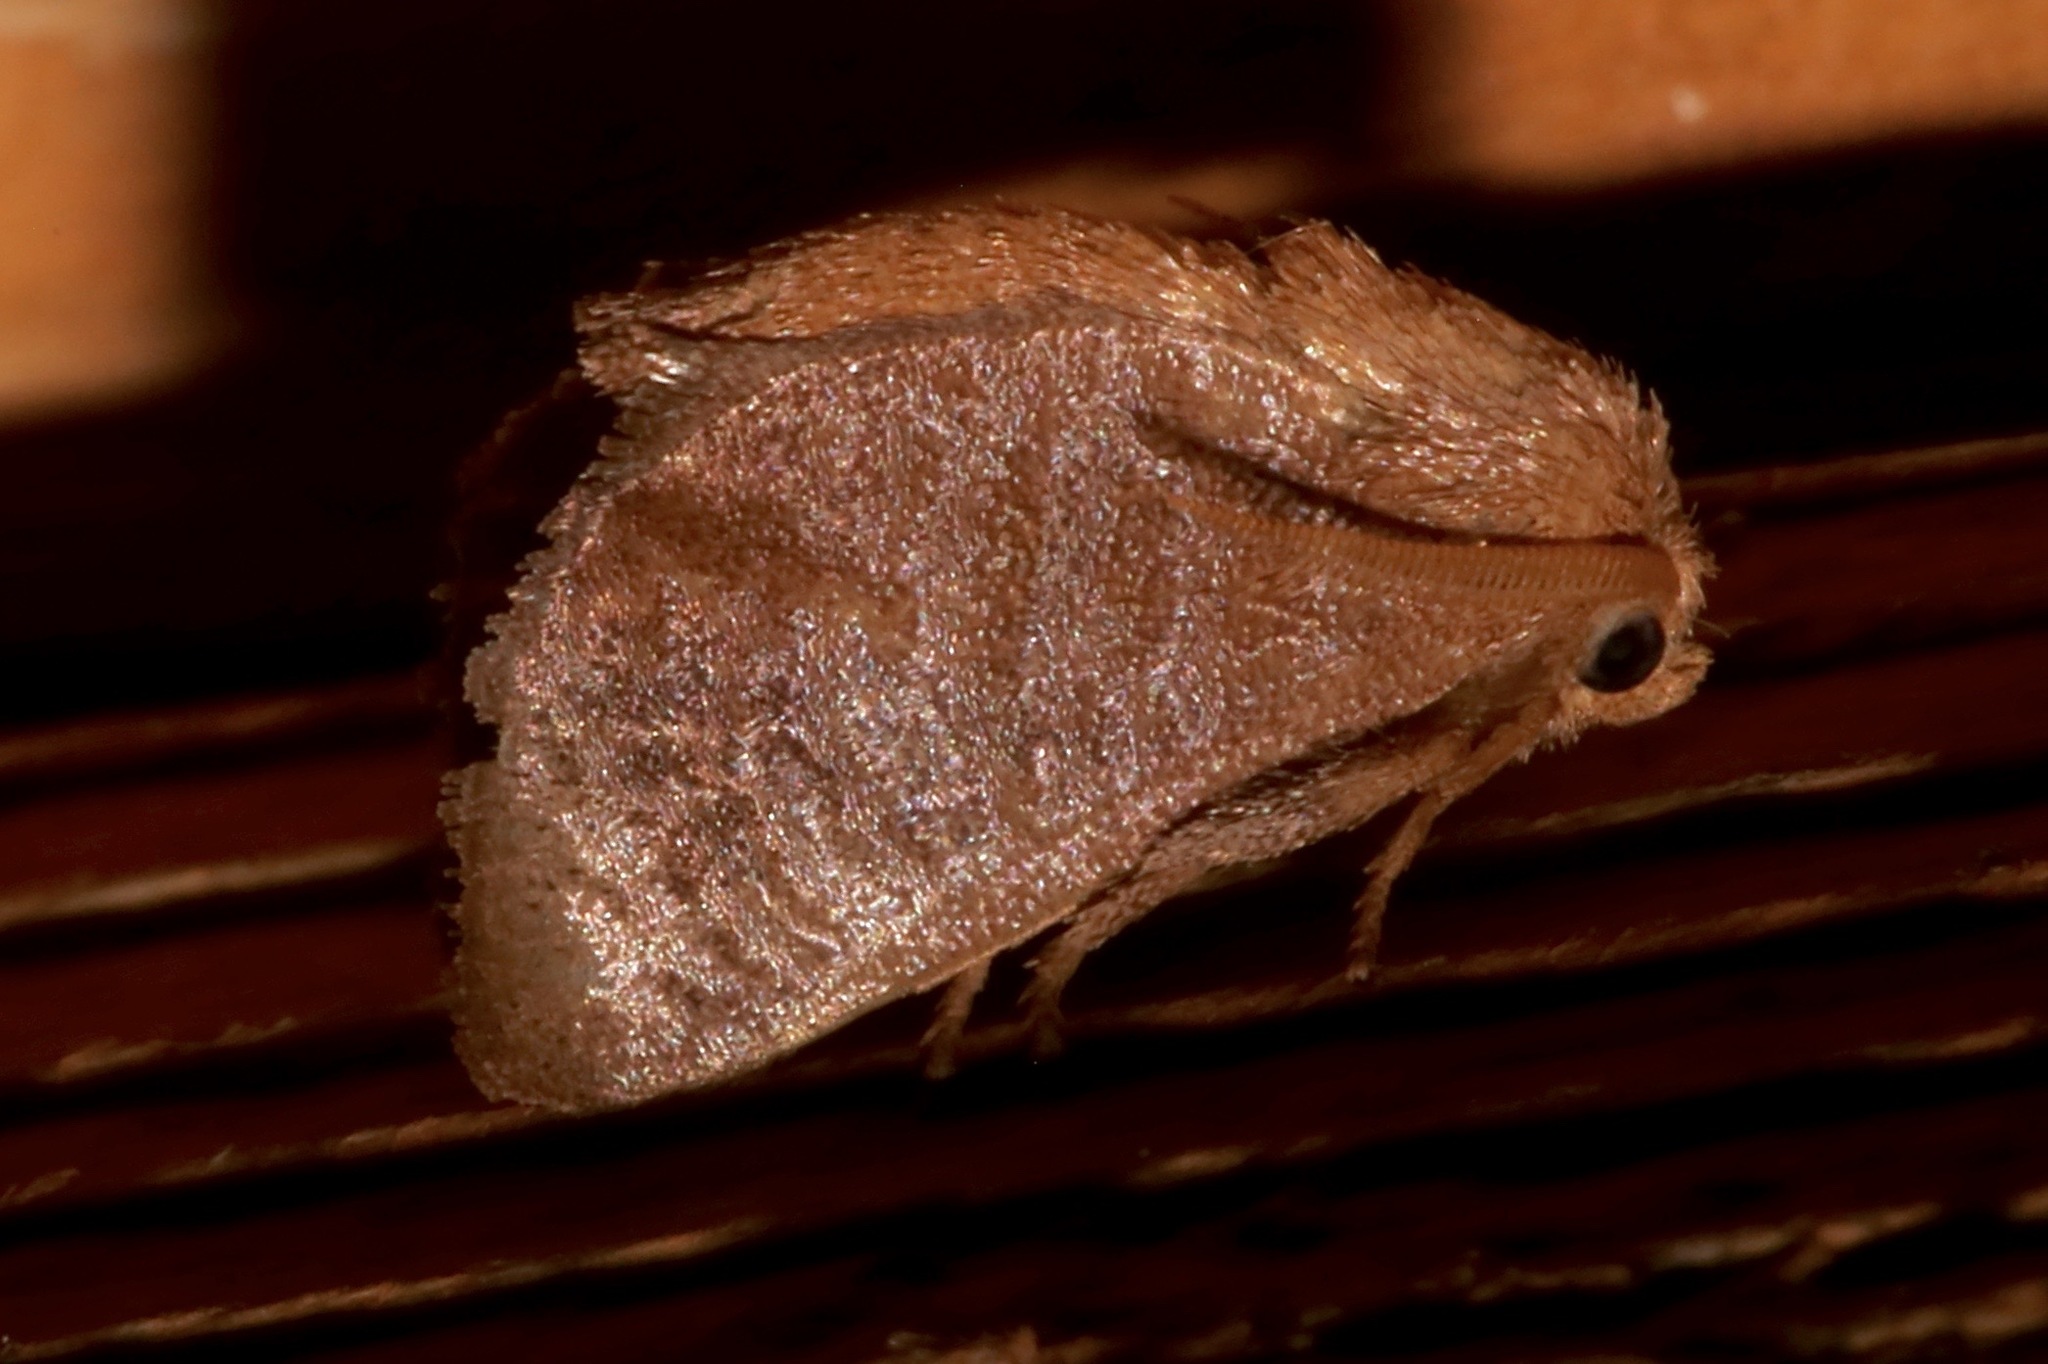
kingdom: Animalia
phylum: Arthropoda
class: Insecta
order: Lepidoptera
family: Limacodidae
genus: Isa
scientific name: Isa textula
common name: Crowned slug moth
